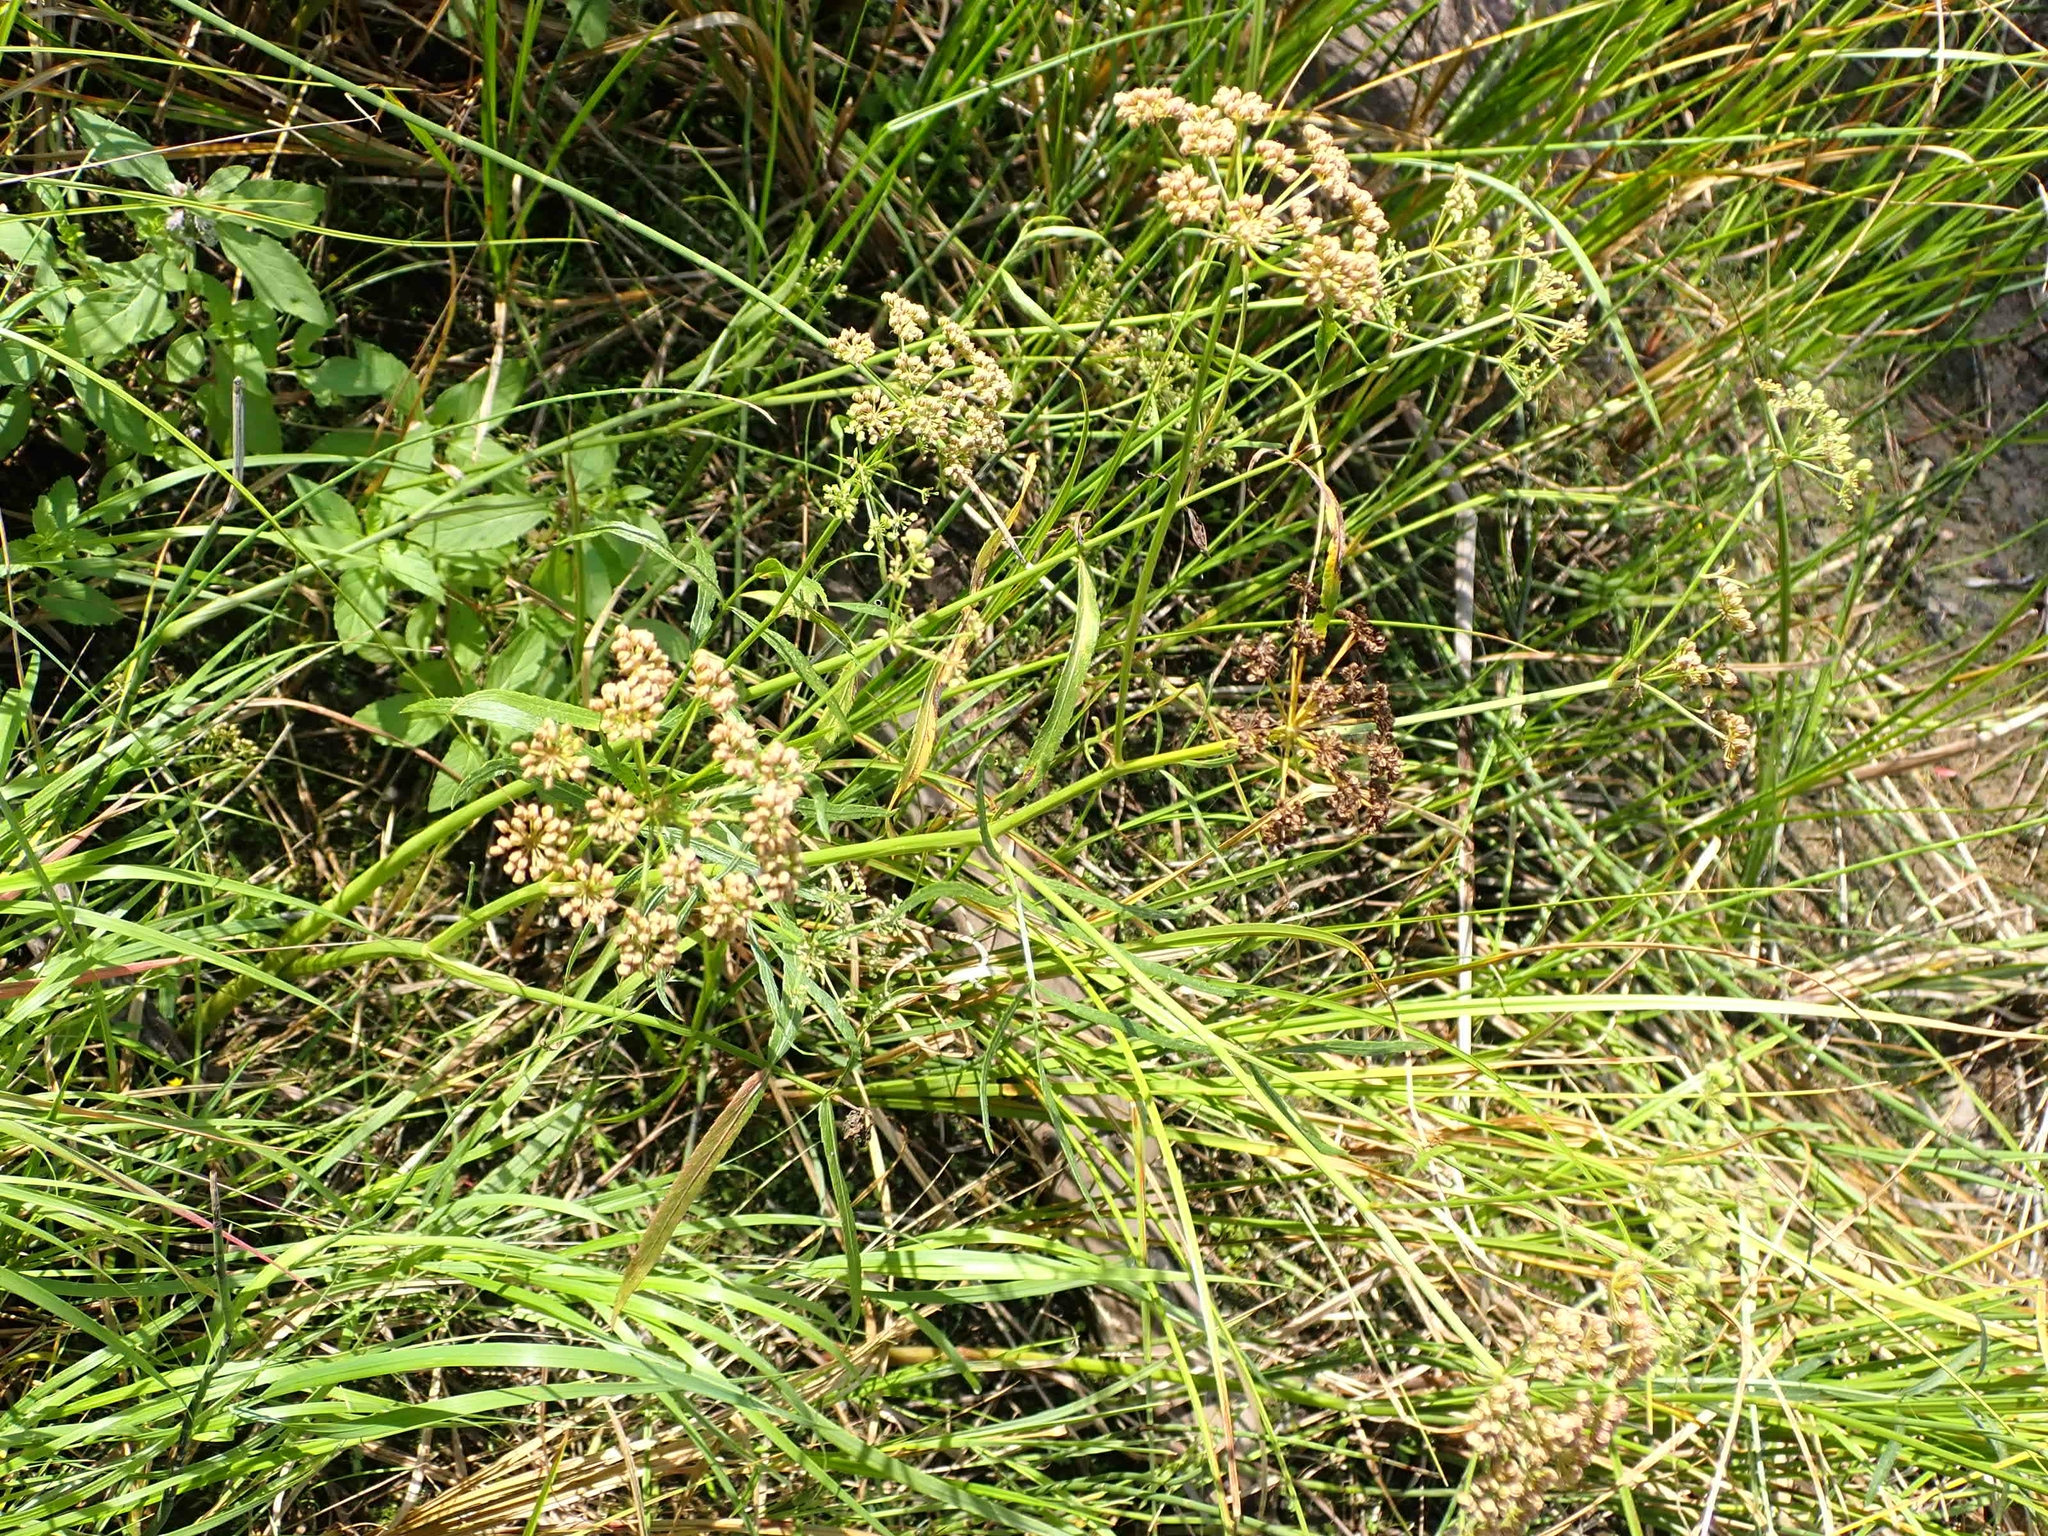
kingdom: Plantae
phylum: Tracheophyta
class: Magnoliopsida
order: Apiales
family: Apiaceae
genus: Sium
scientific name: Sium suave
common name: Hemlock water-parsnip
